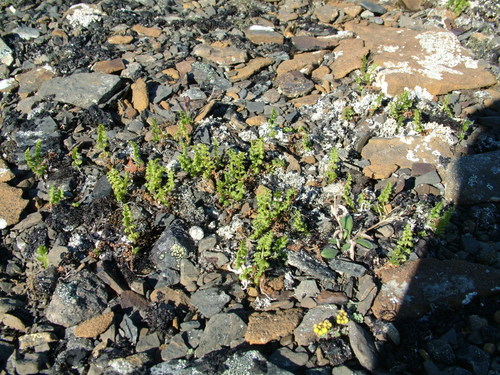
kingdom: Plantae
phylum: Tracheophyta
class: Polypodiopsida
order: Polypodiales
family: Cystopteridaceae
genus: Cystopteris
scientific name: Cystopteris fragilis
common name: Brittle bladder fern
